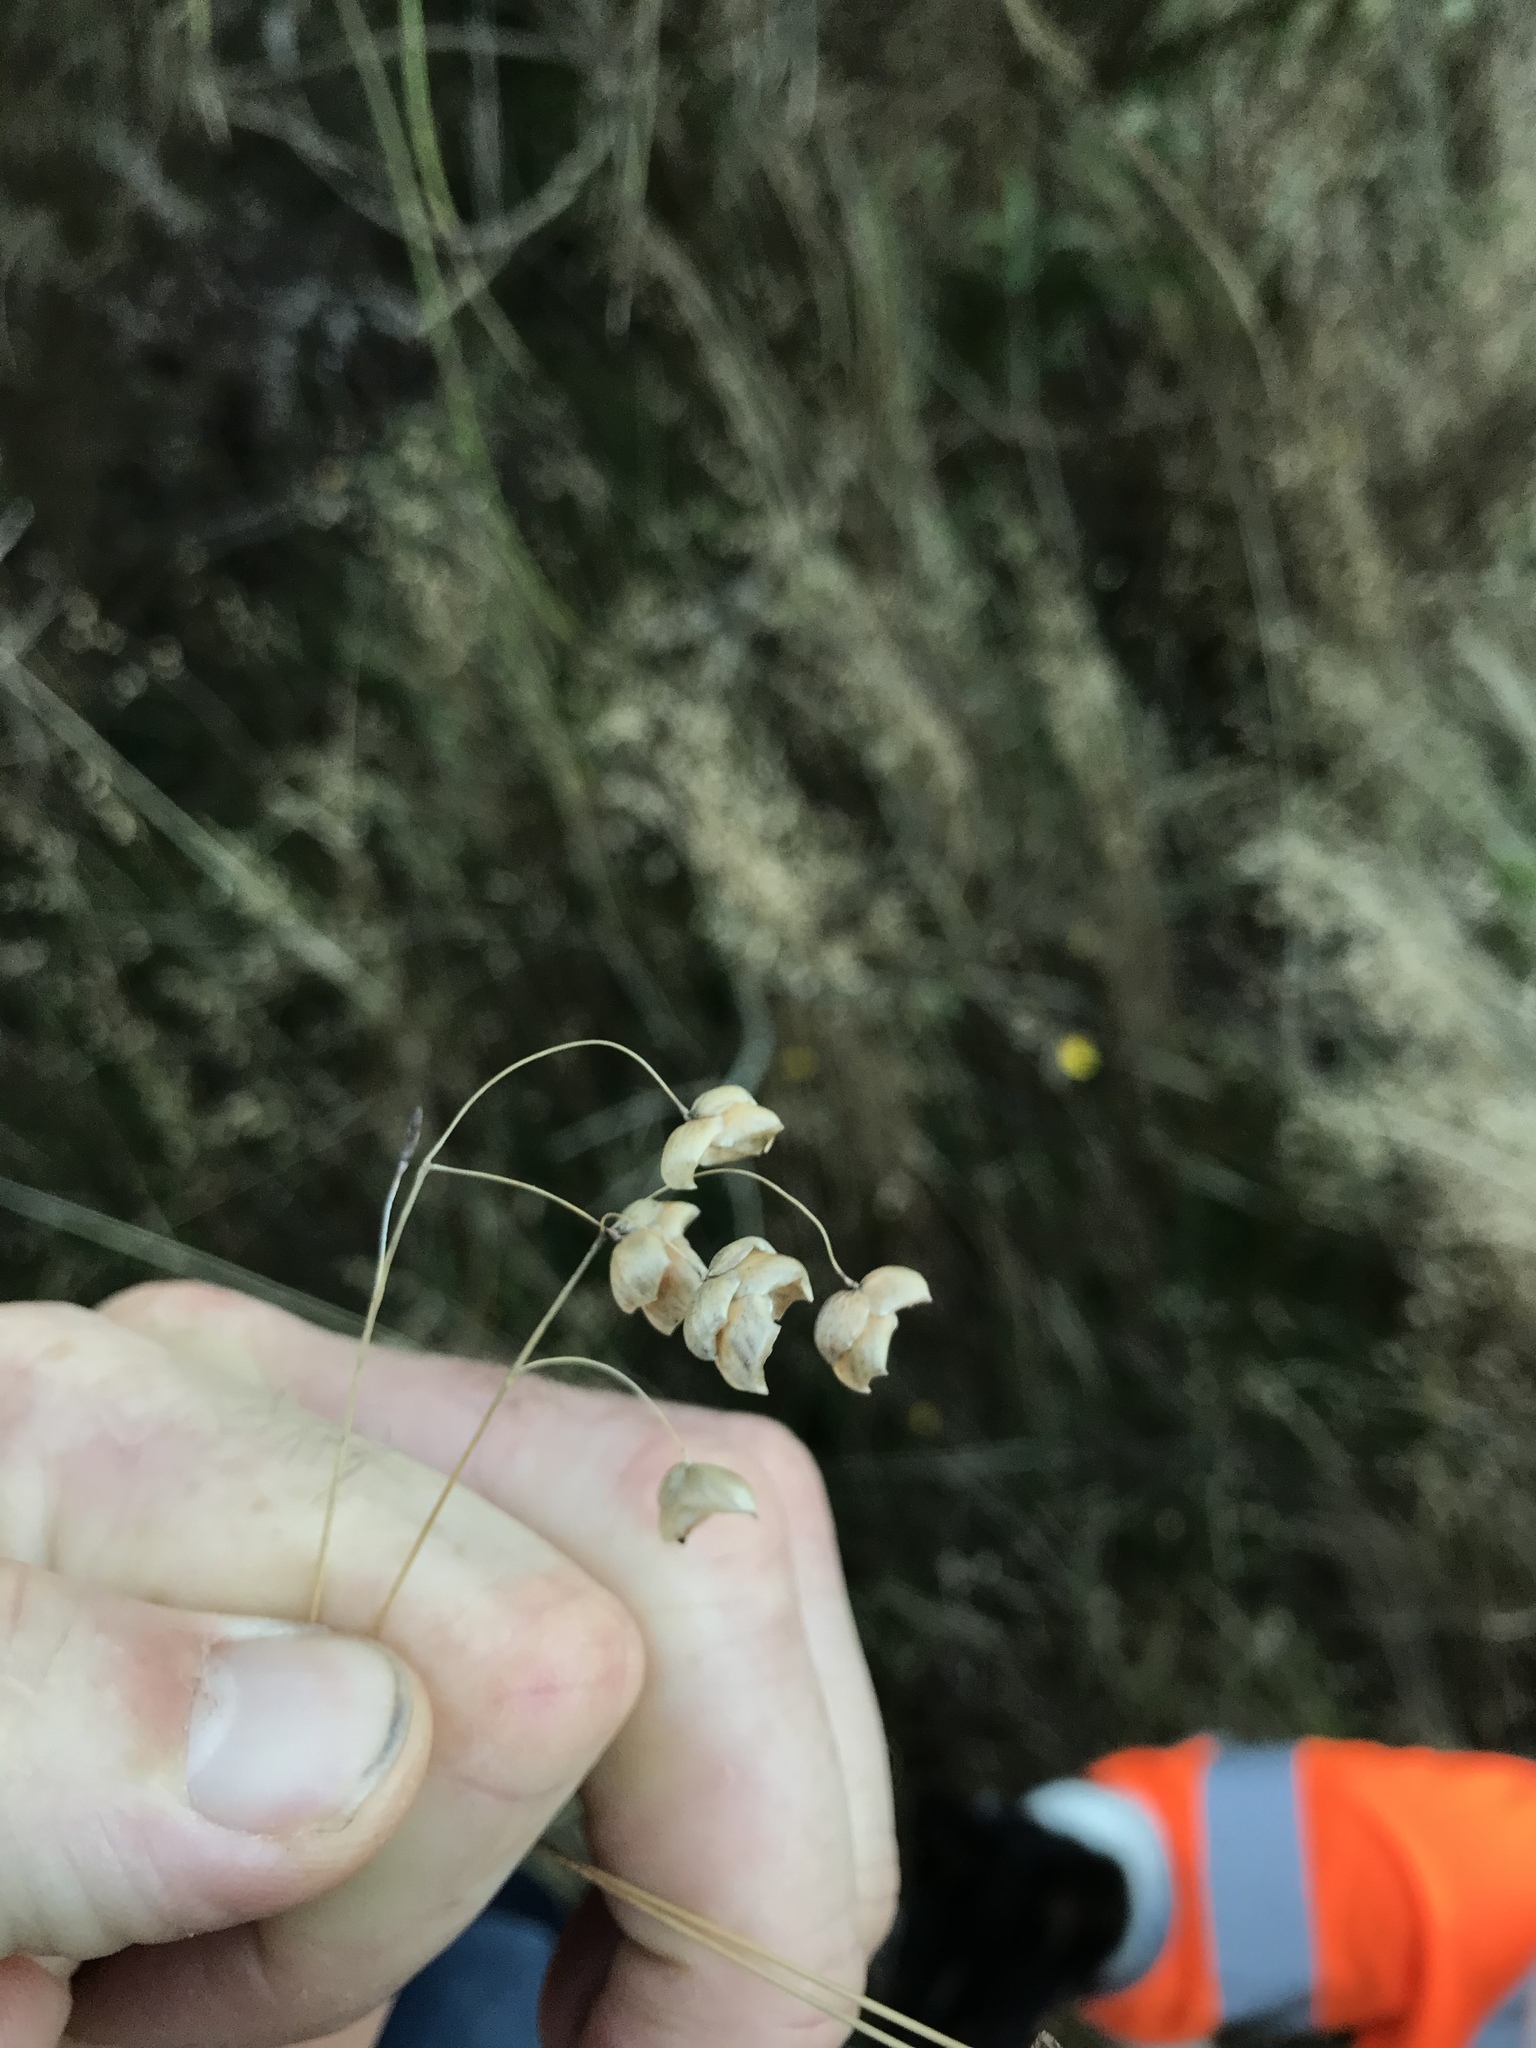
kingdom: Plantae
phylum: Tracheophyta
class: Liliopsida
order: Poales
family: Poaceae
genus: Briza
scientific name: Briza maxima
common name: Big quakinggrass
